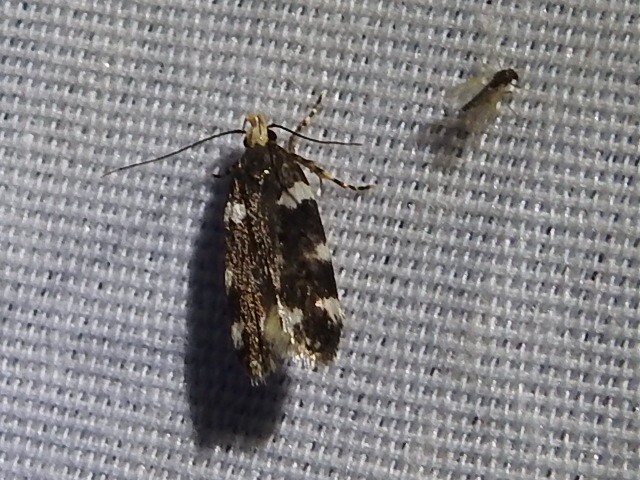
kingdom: Animalia
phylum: Arthropoda
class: Insecta
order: Lepidoptera
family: Gelechiidae
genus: Fascista
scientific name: Fascista cercerisella
